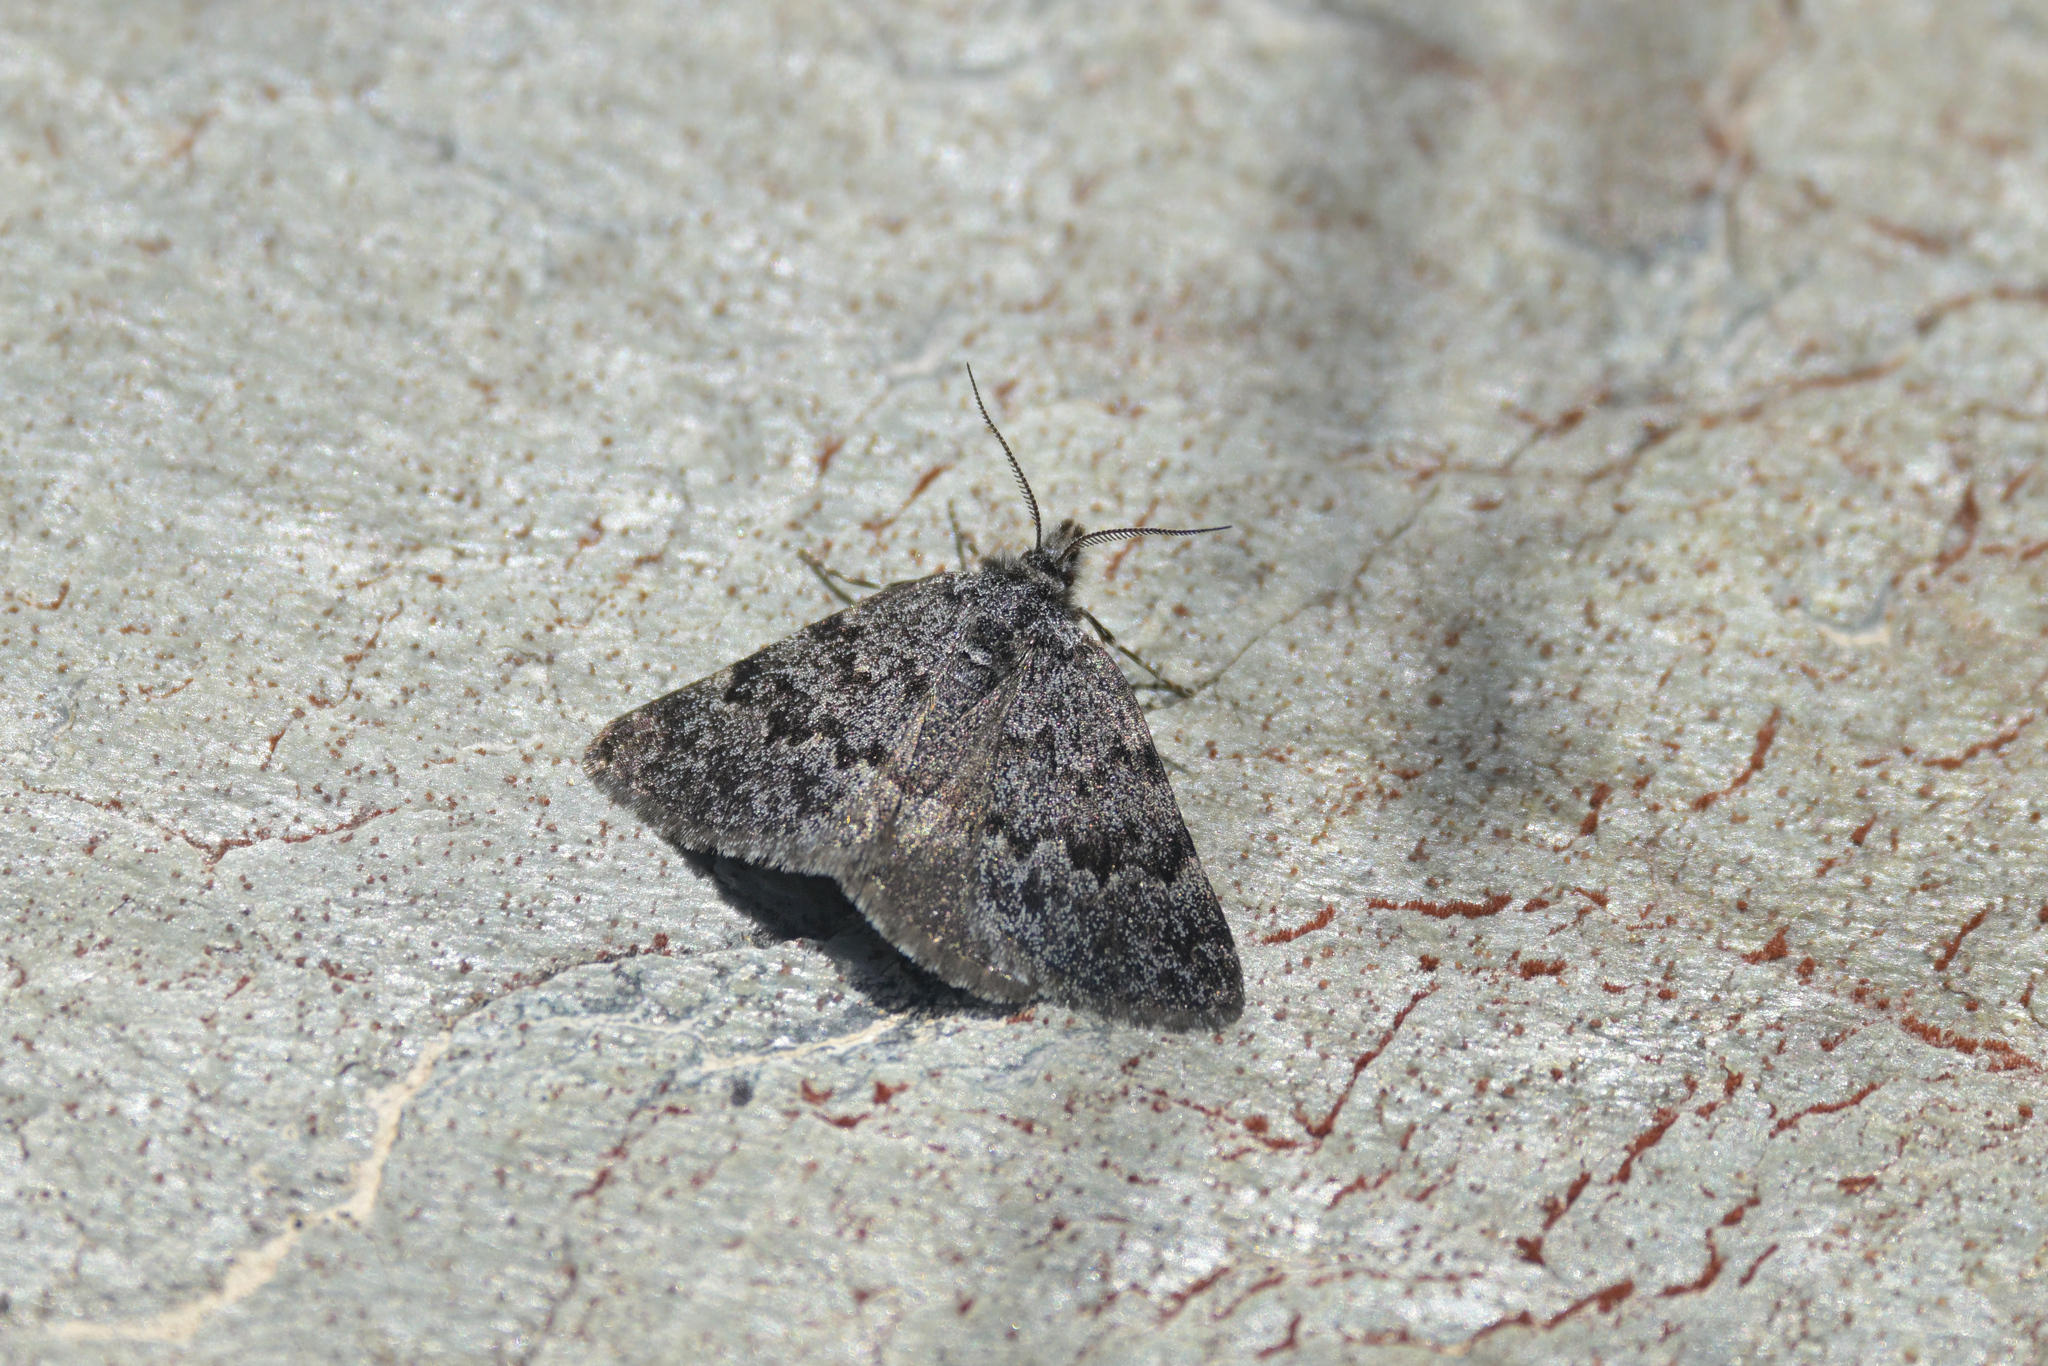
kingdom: Animalia
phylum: Arthropoda
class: Insecta
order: Lepidoptera
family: Geometridae
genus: Dichromodes
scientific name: Dichromodes niger
